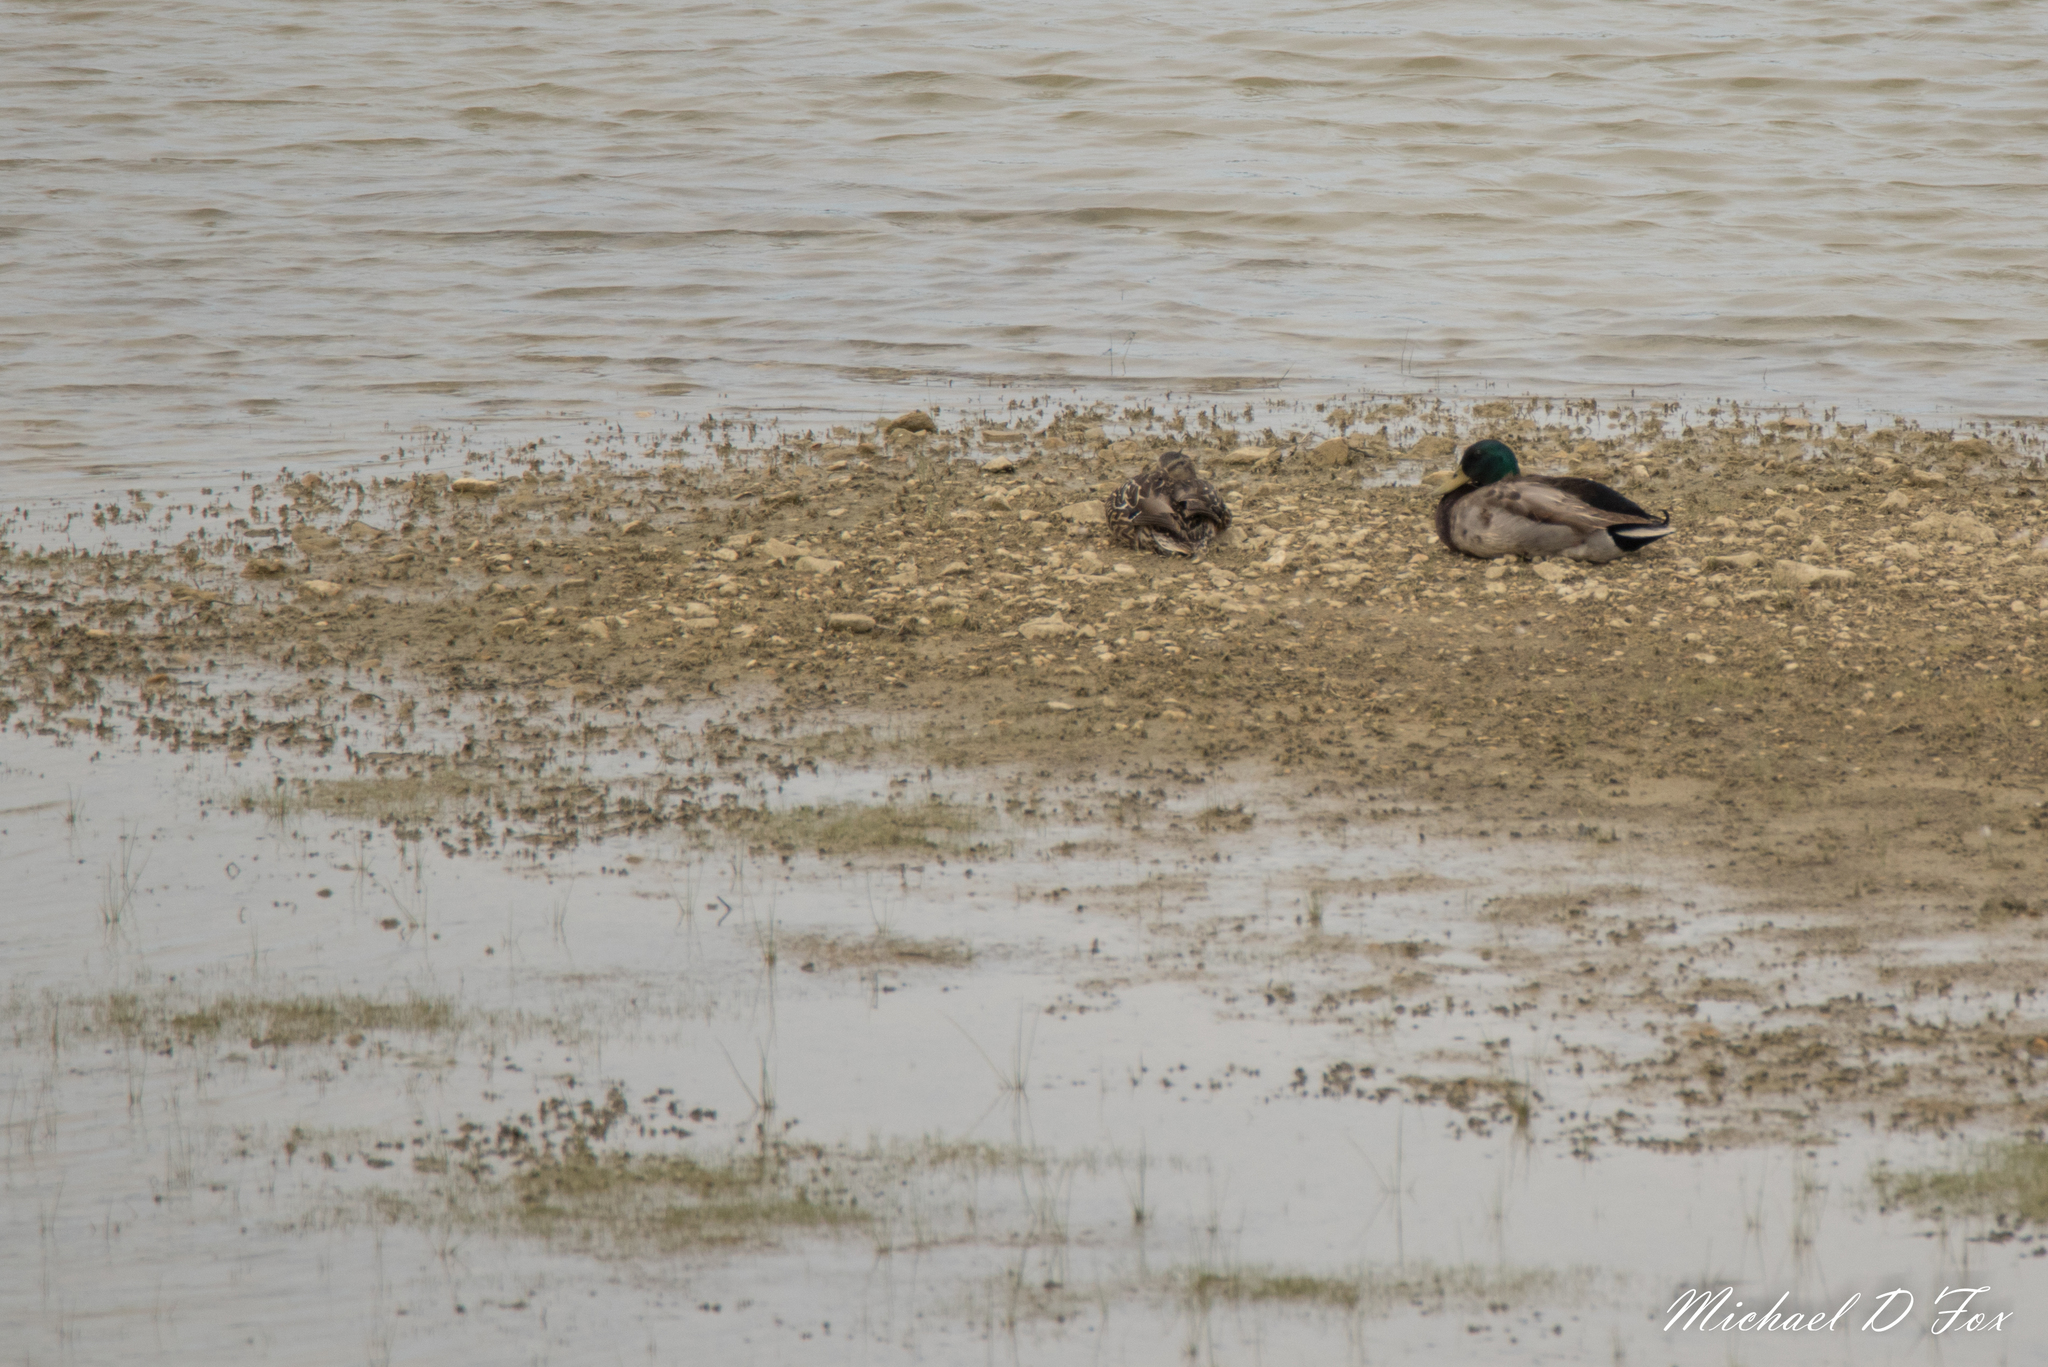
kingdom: Animalia
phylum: Chordata
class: Aves
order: Anseriformes
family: Anatidae
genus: Anas
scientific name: Anas platyrhynchos
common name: Mallard
